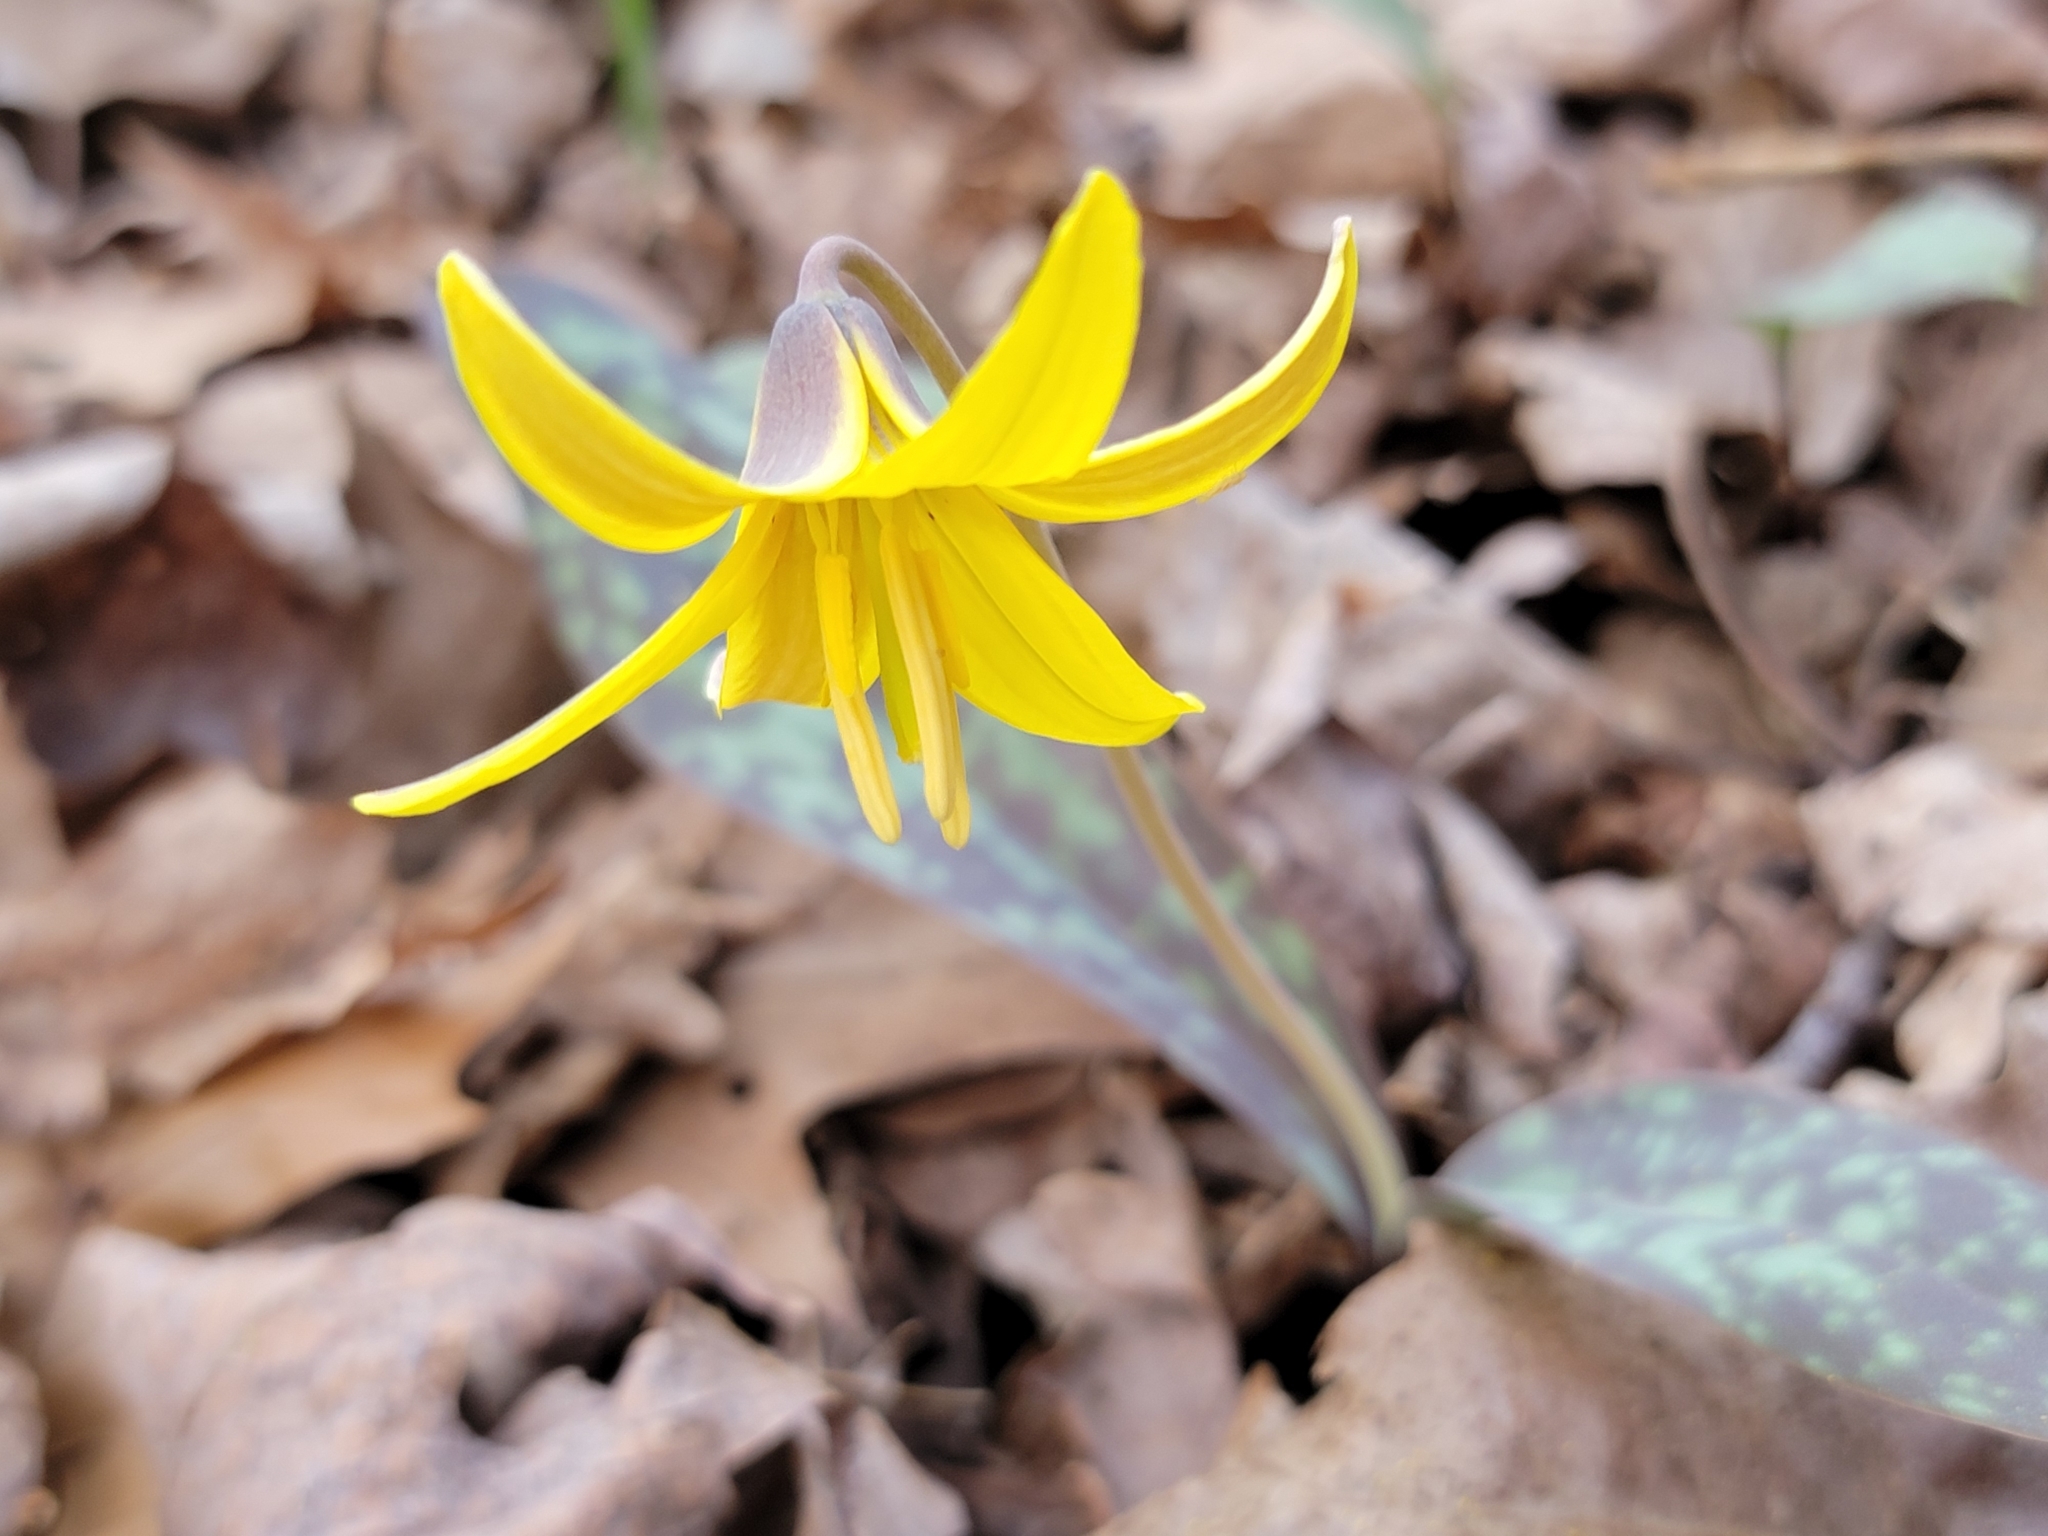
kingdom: Plantae
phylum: Tracheophyta
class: Liliopsida
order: Liliales
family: Liliaceae
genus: Erythronium
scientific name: Erythronium americanum
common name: Yellow adder's-tongue
